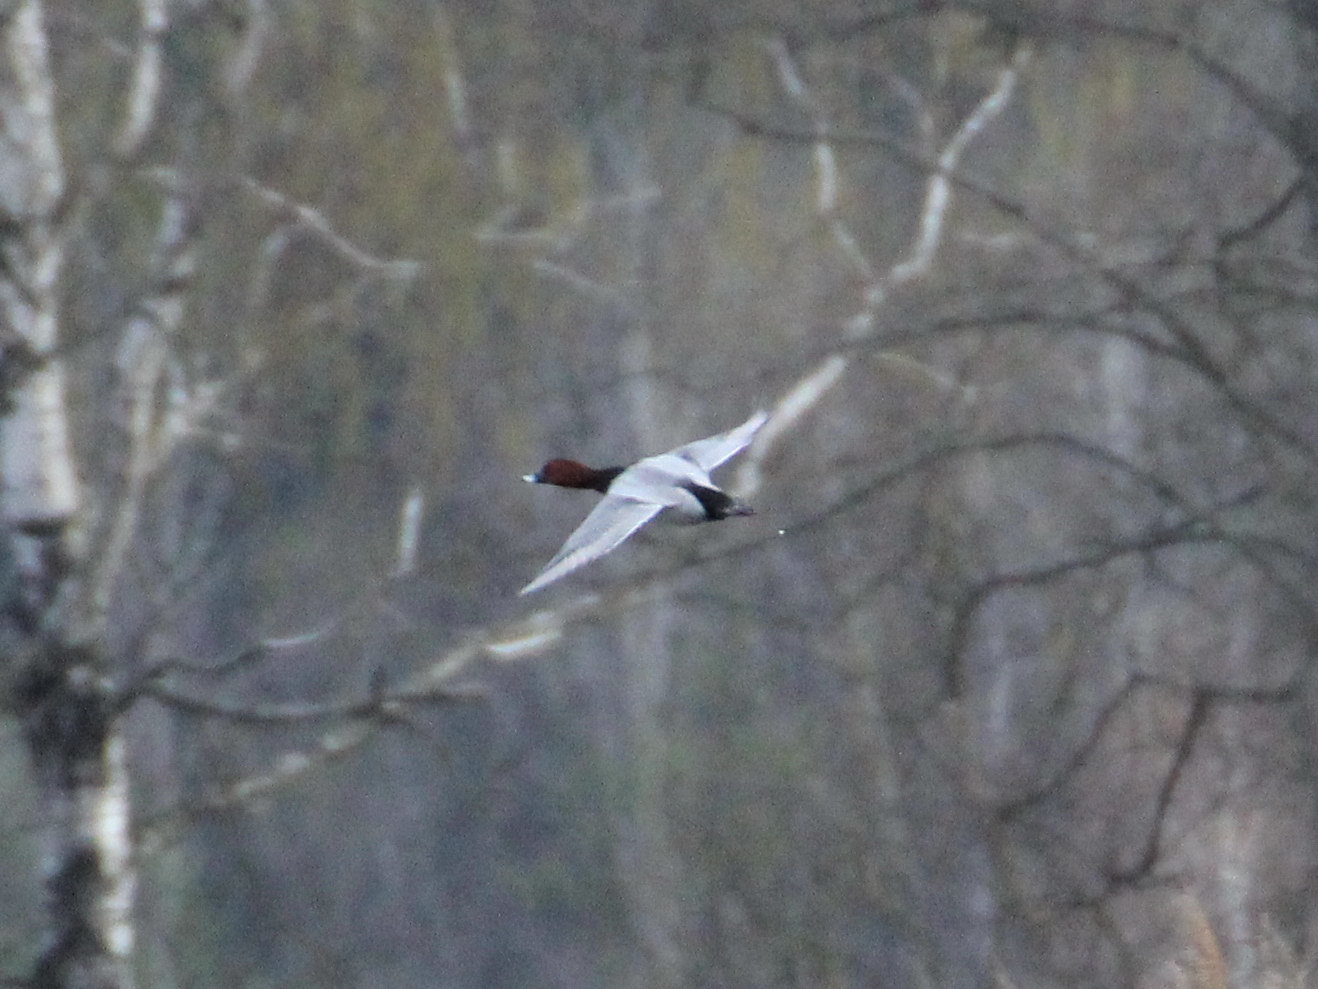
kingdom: Animalia
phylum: Chordata
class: Aves
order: Anseriformes
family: Anatidae
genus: Aythya
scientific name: Aythya ferina
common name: Common pochard
